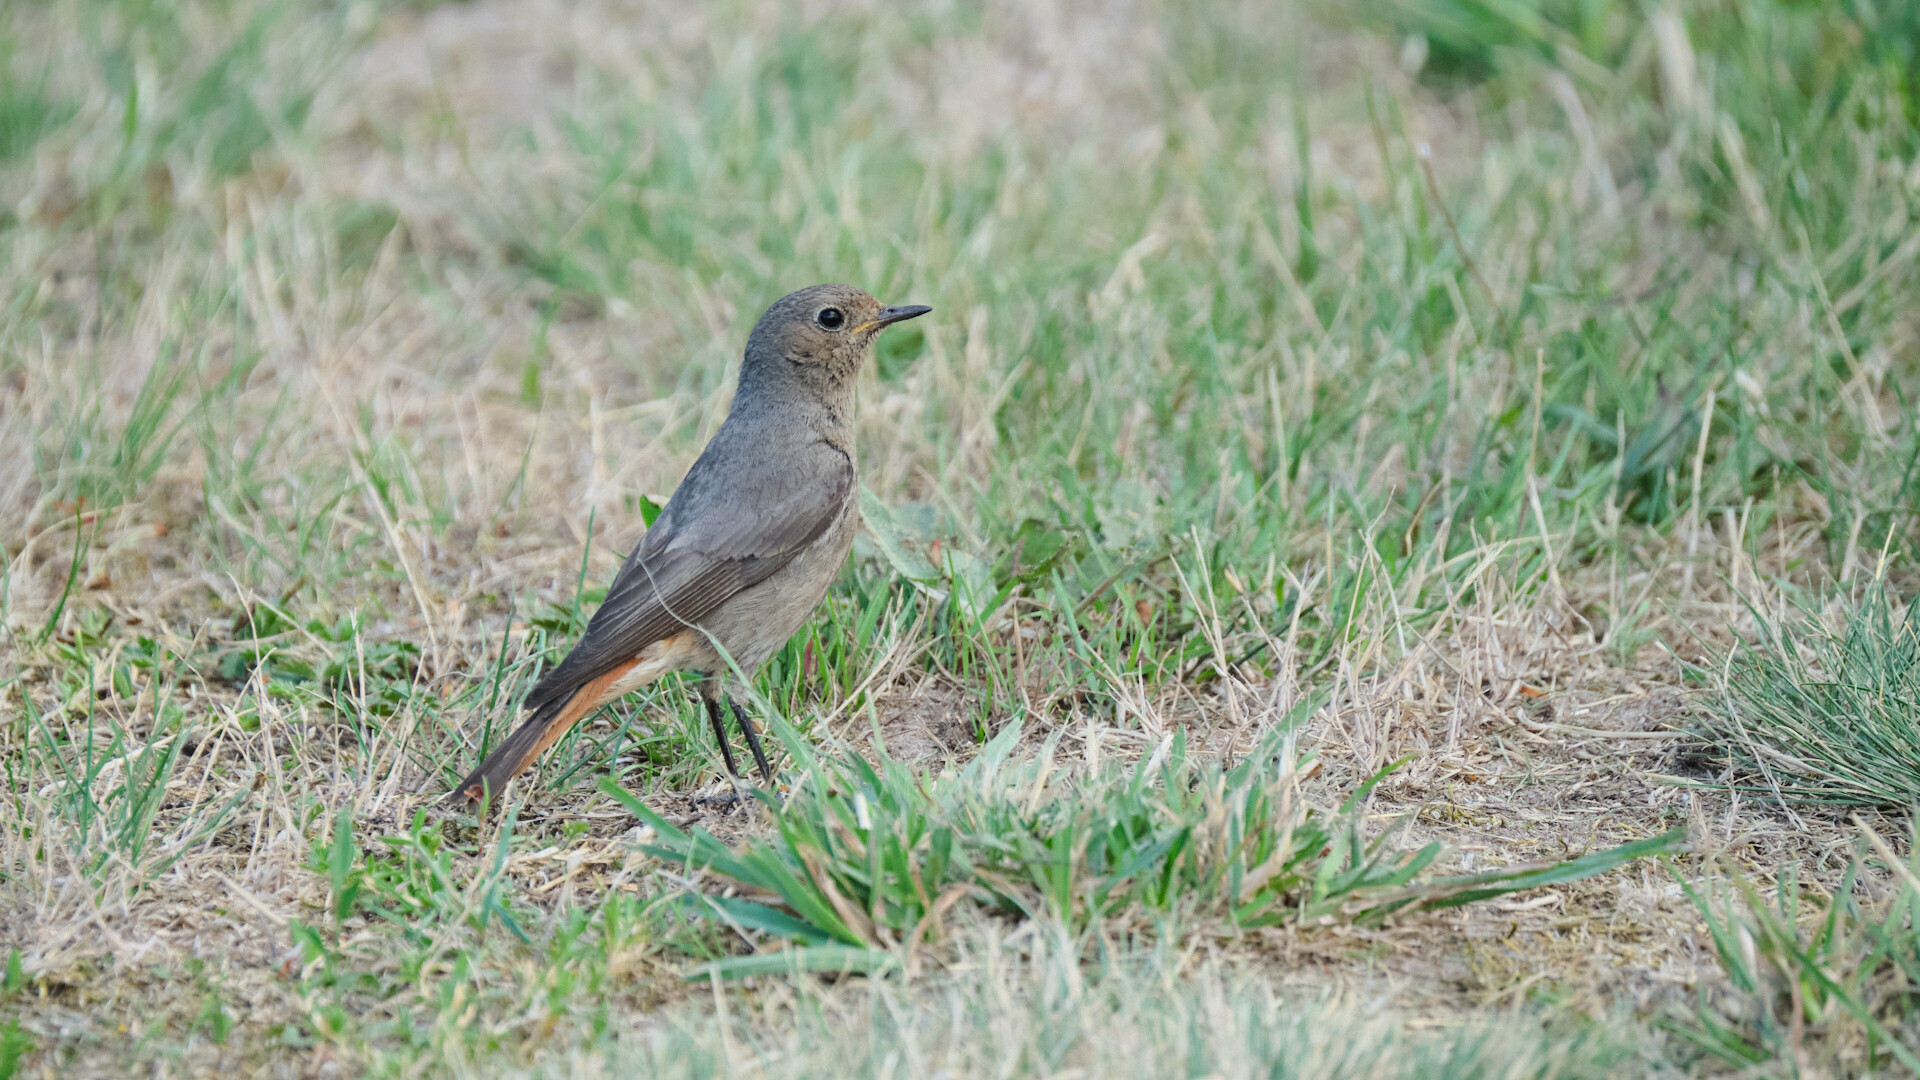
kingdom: Animalia
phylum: Chordata
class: Aves
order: Passeriformes
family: Muscicapidae
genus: Phoenicurus
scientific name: Phoenicurus ochruros
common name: Black redstart
